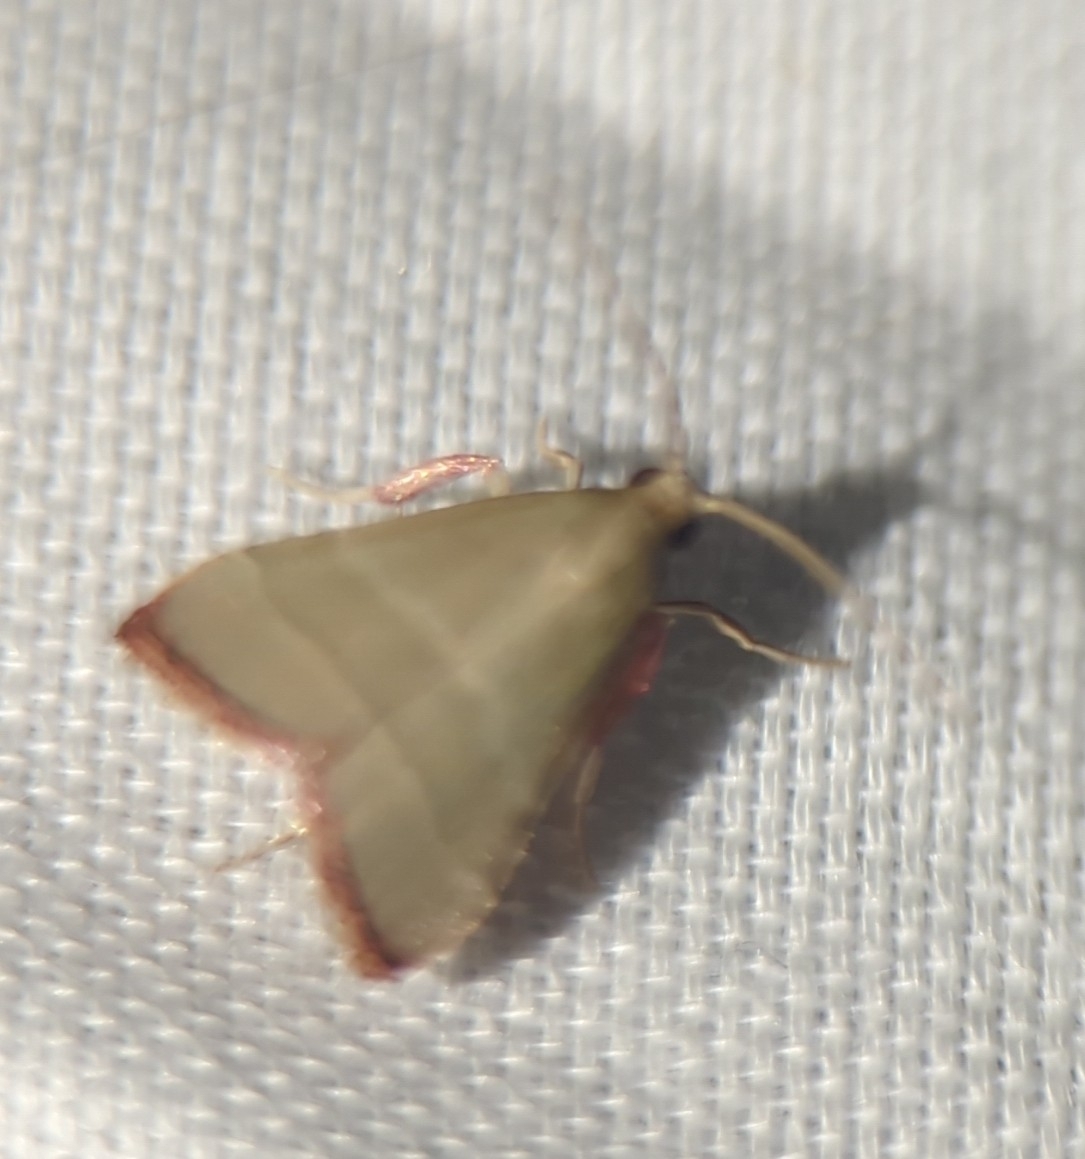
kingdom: Animalia
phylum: Arthropoda
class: Insecta
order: Lepidoptera
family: Pyralidae
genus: Arta
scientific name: Arta olivalis
